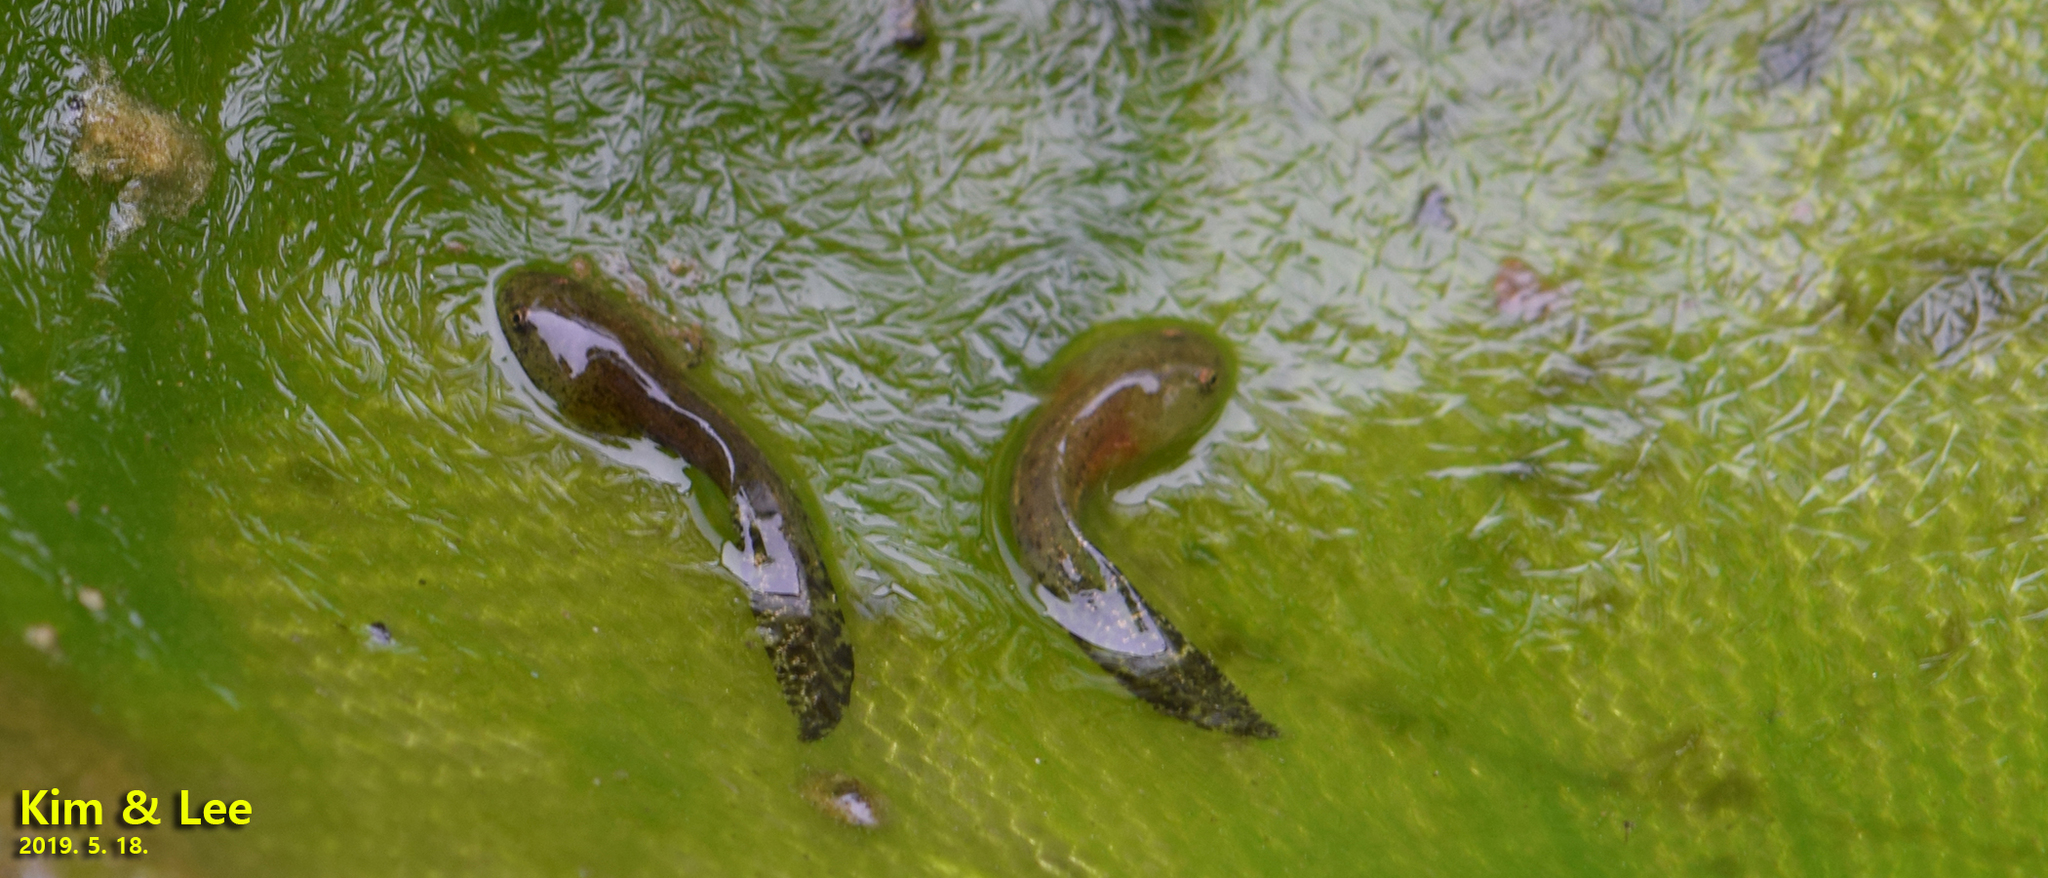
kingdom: Animalia
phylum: Chordata
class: Amphibia
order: Caudata
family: Hynobiidae
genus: Hynobius
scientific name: Hynobius leechii
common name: Gensan salamander
